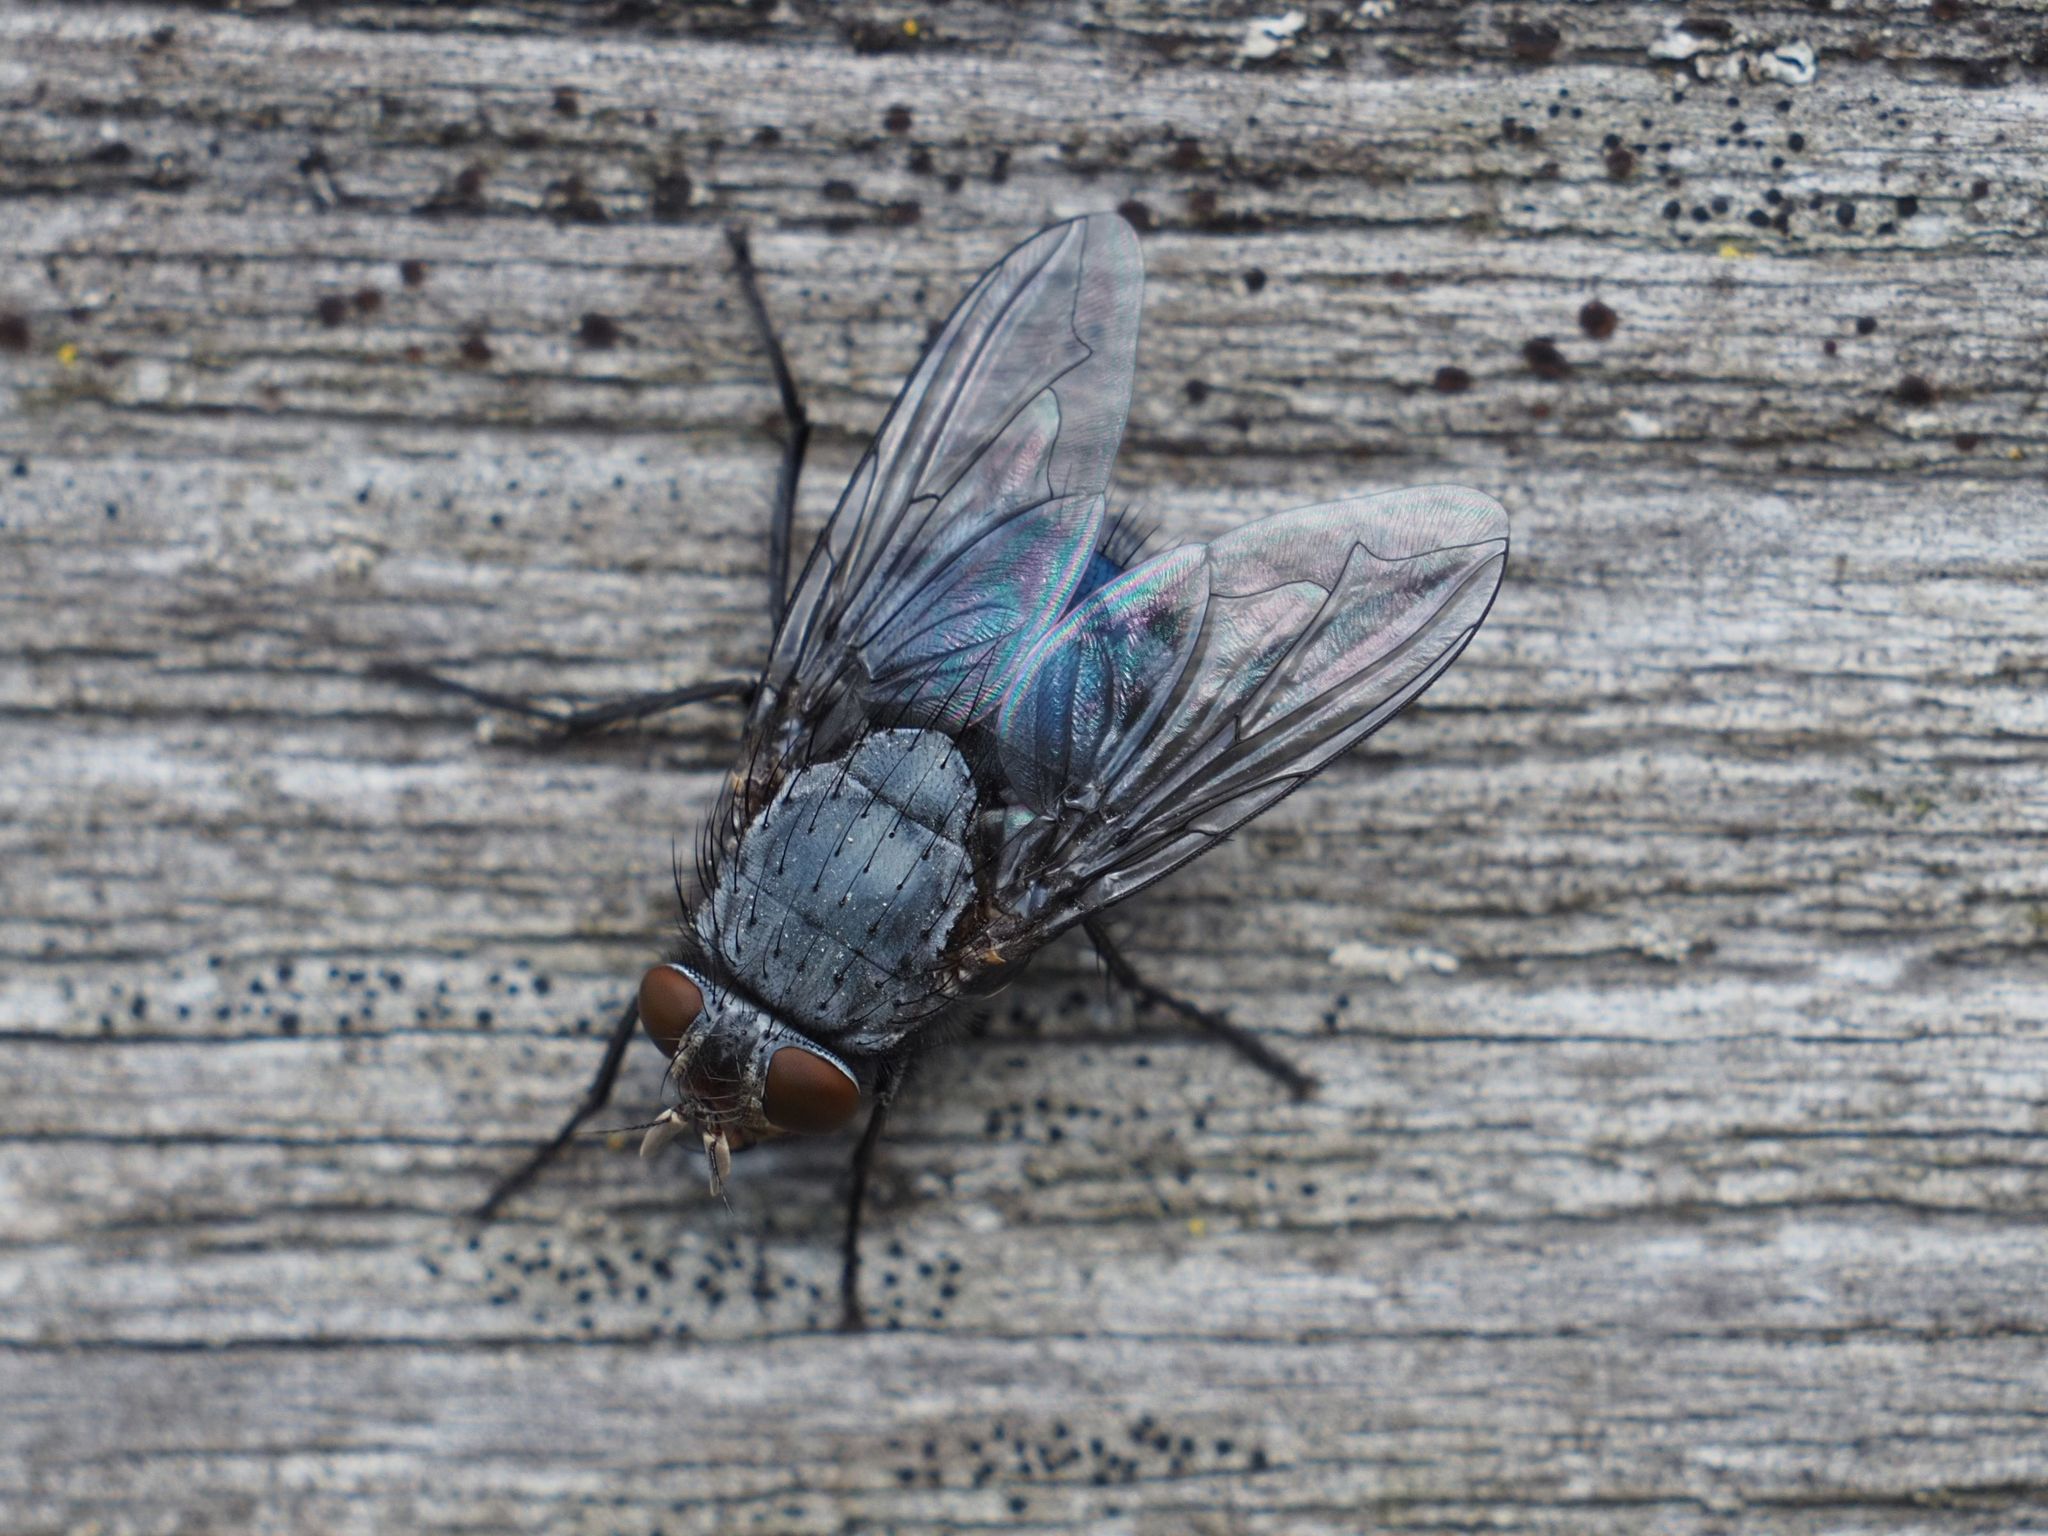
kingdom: Animalia
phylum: Arthropoda
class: Insecta
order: Diptera
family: Calliphoridae
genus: Calliphora
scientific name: Calliphora vicina
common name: Common blow flie
